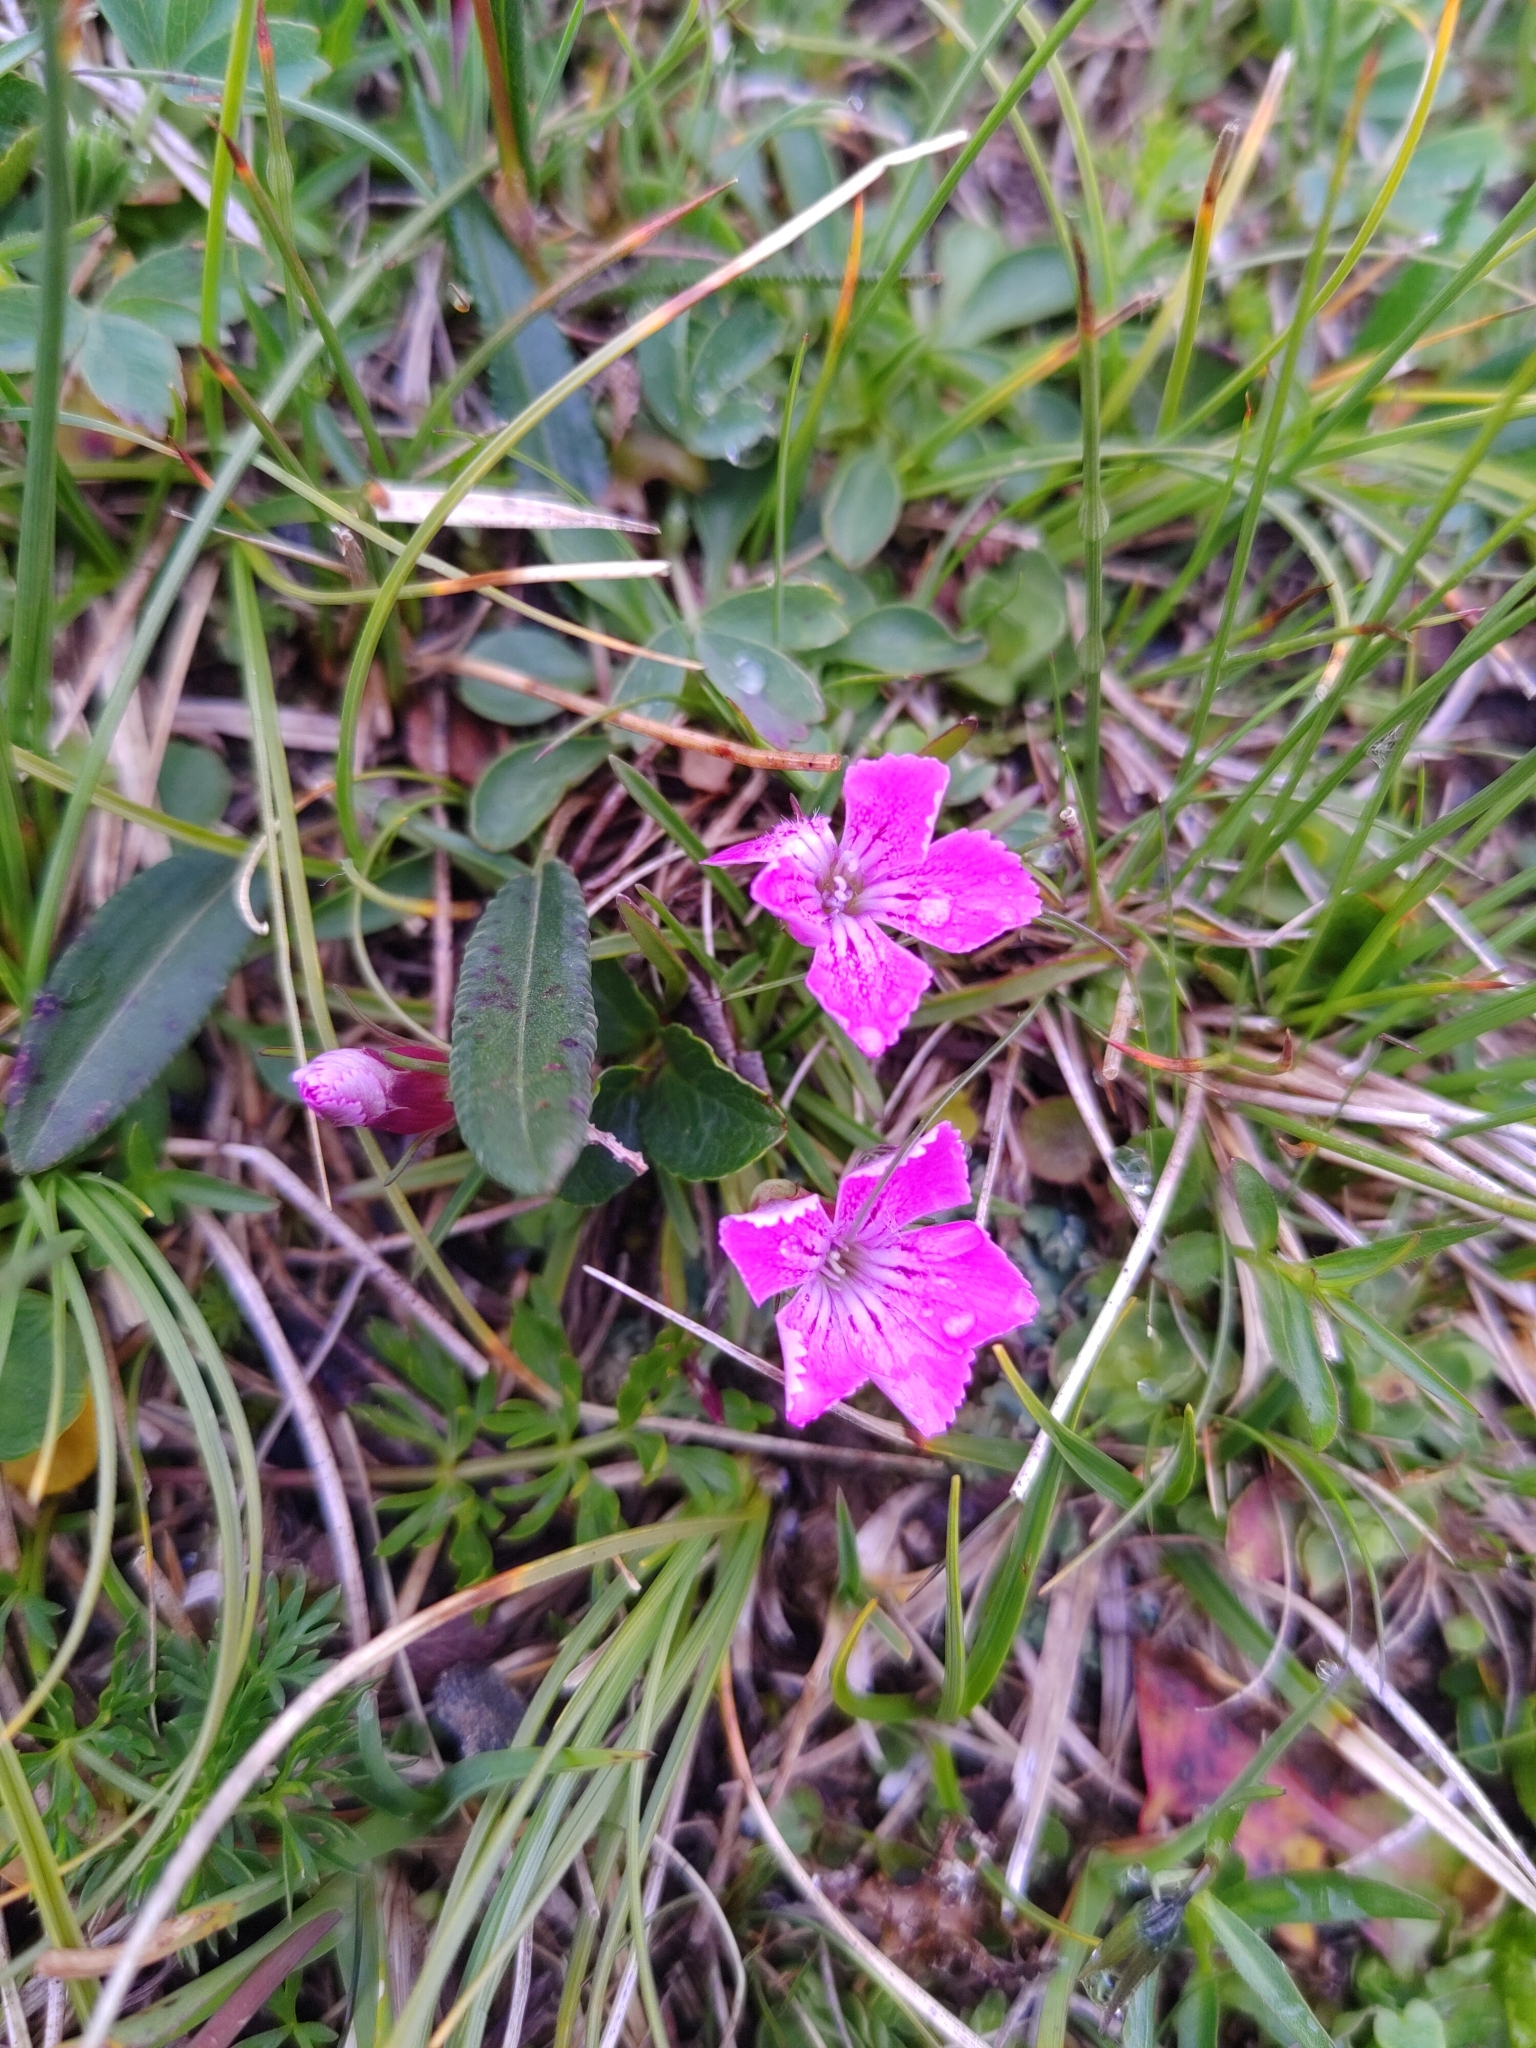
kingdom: Plantae
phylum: Tracheophyta
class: Magnoliopsida
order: Caryophyllales
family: Caryophyllaceae
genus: Dianthus
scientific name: Dianthus glacialis
